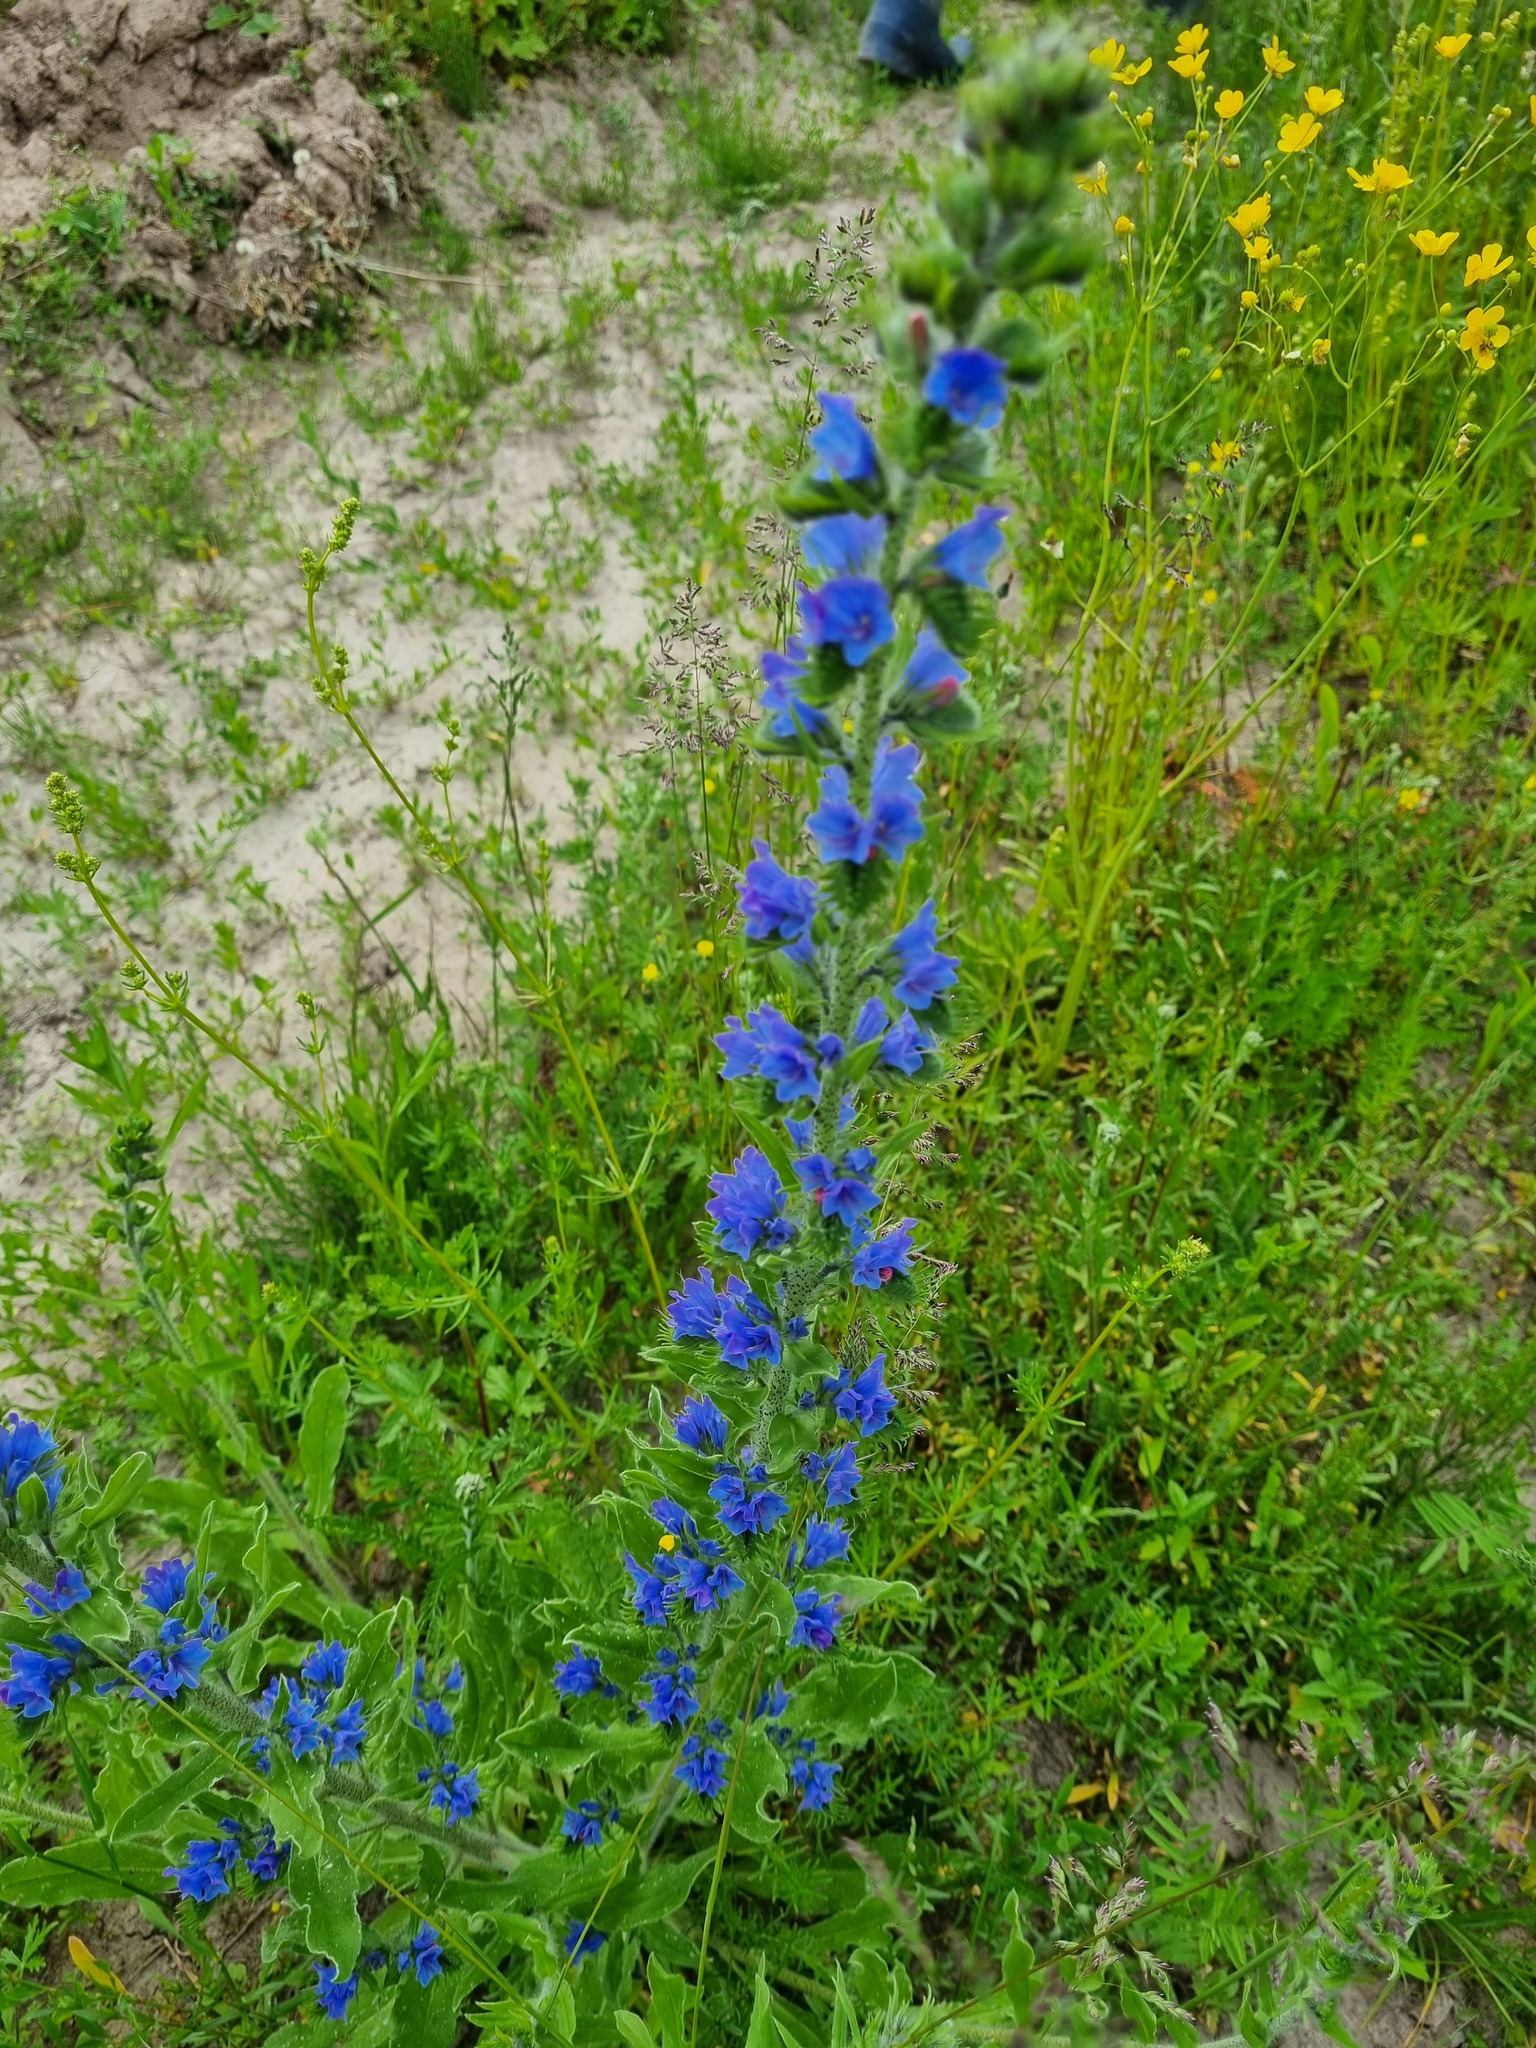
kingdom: Plantae
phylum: Tracheophyta
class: Magnoliopsida
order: Boraginales
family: Boraginaceae
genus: Echium
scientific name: Echium vulgare
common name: Common viper's bugloss
